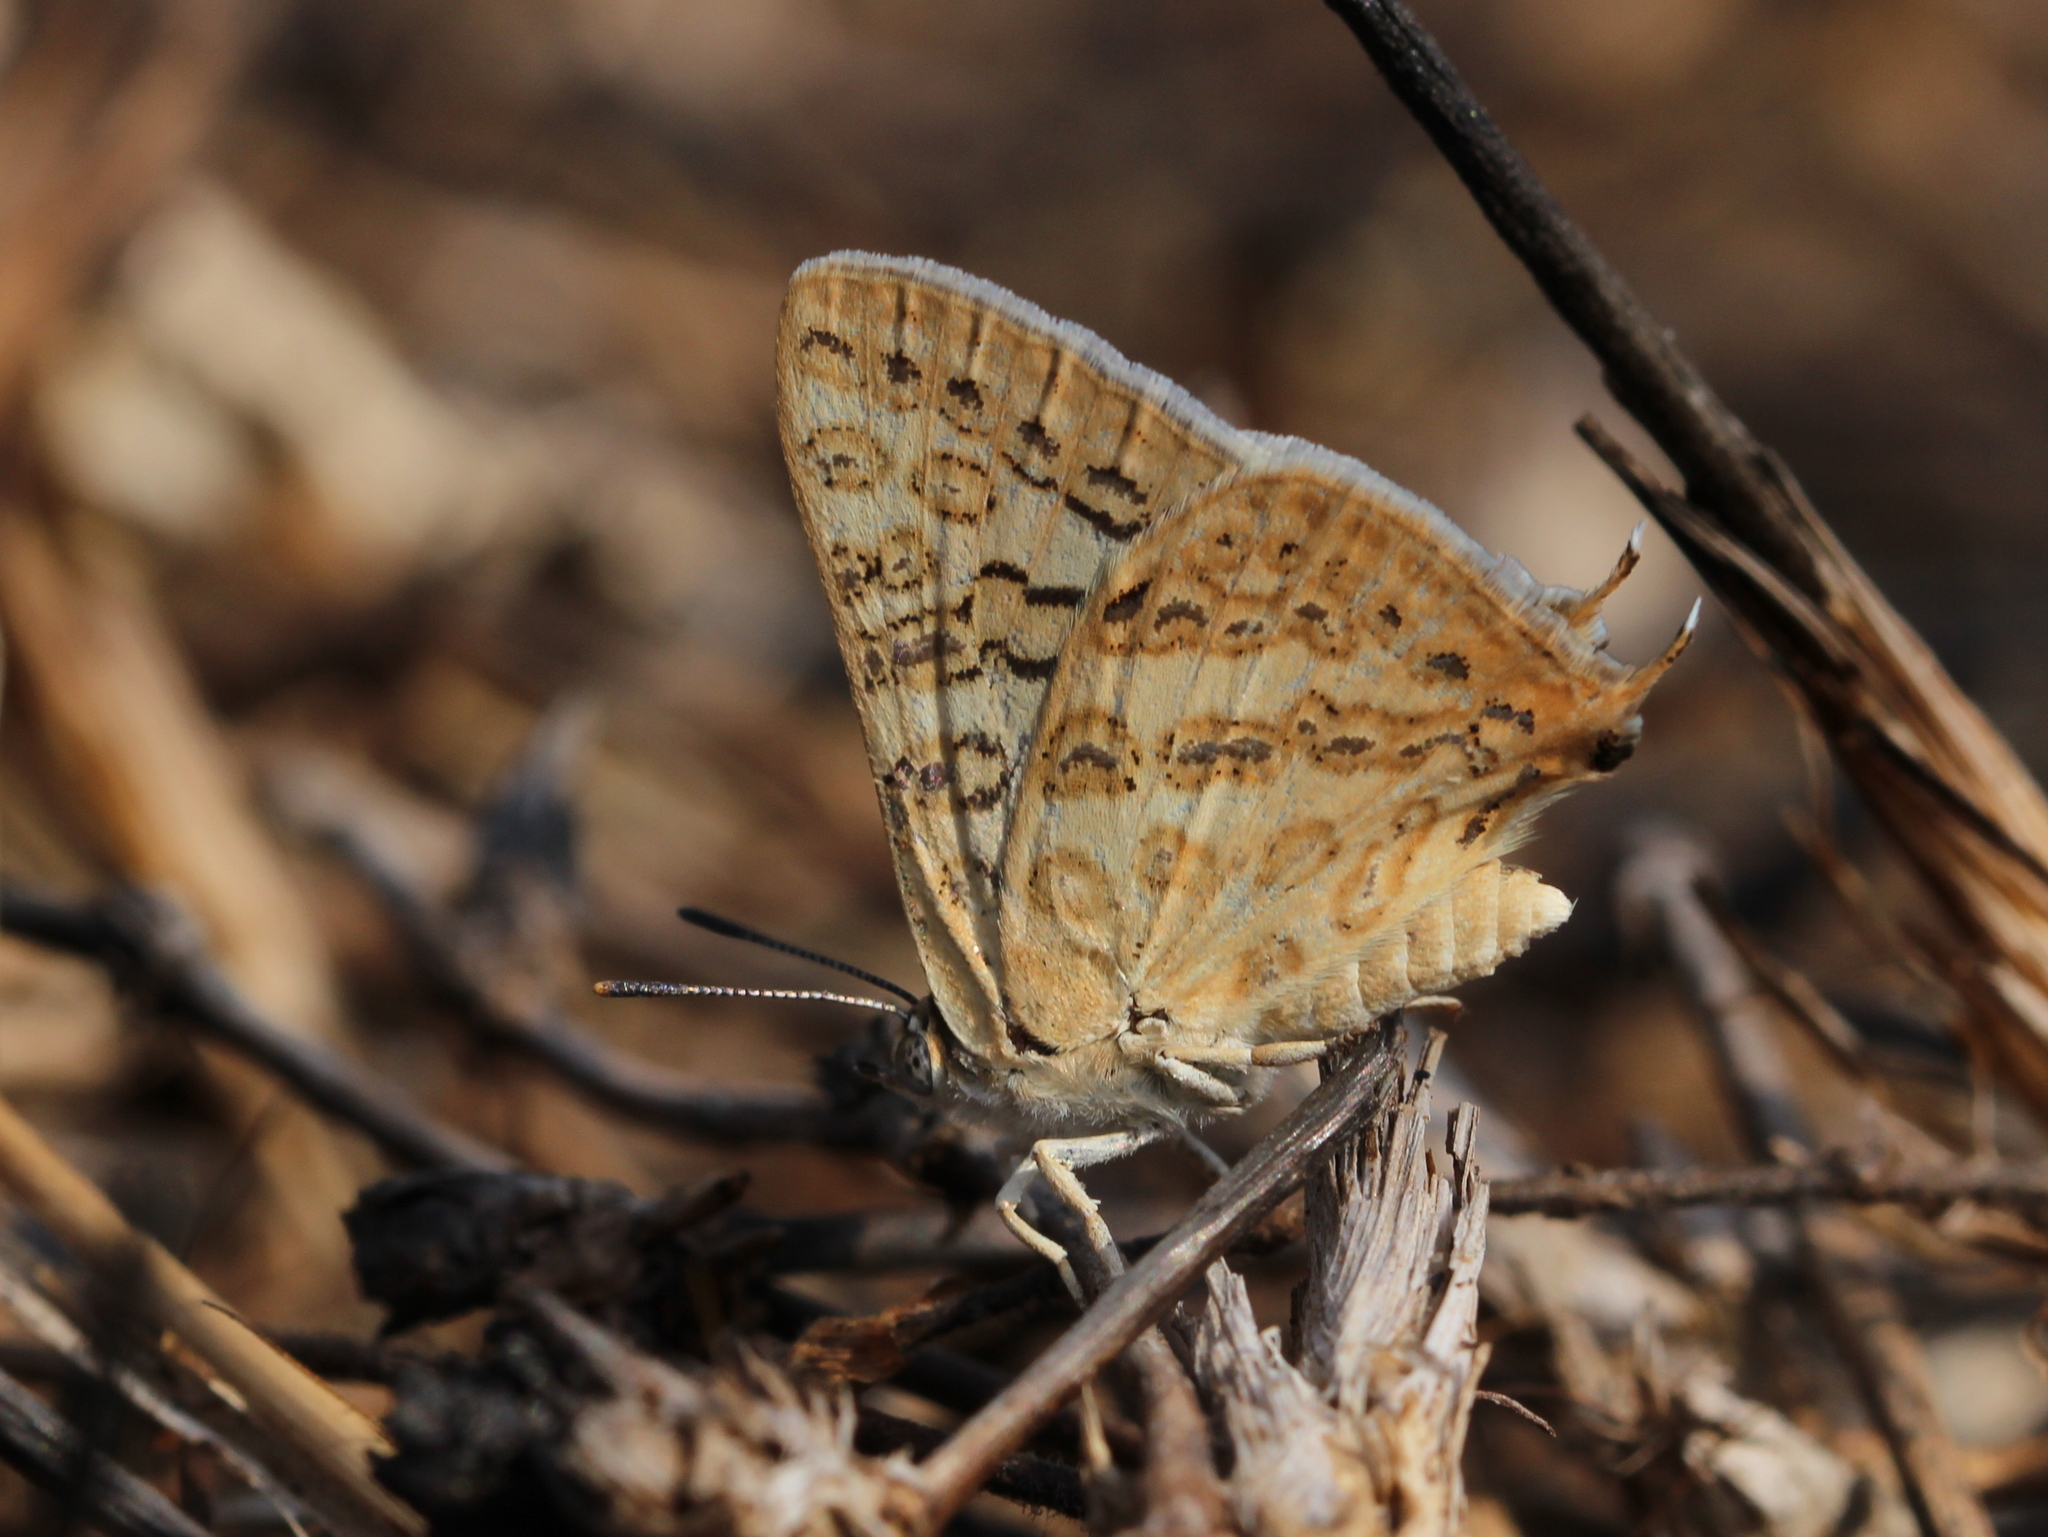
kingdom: Animalia
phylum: Arthropoda
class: Insecta
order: Lepidoptera
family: Lycaenidae
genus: Aphnaeus
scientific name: Aphnaeus lilacinus
